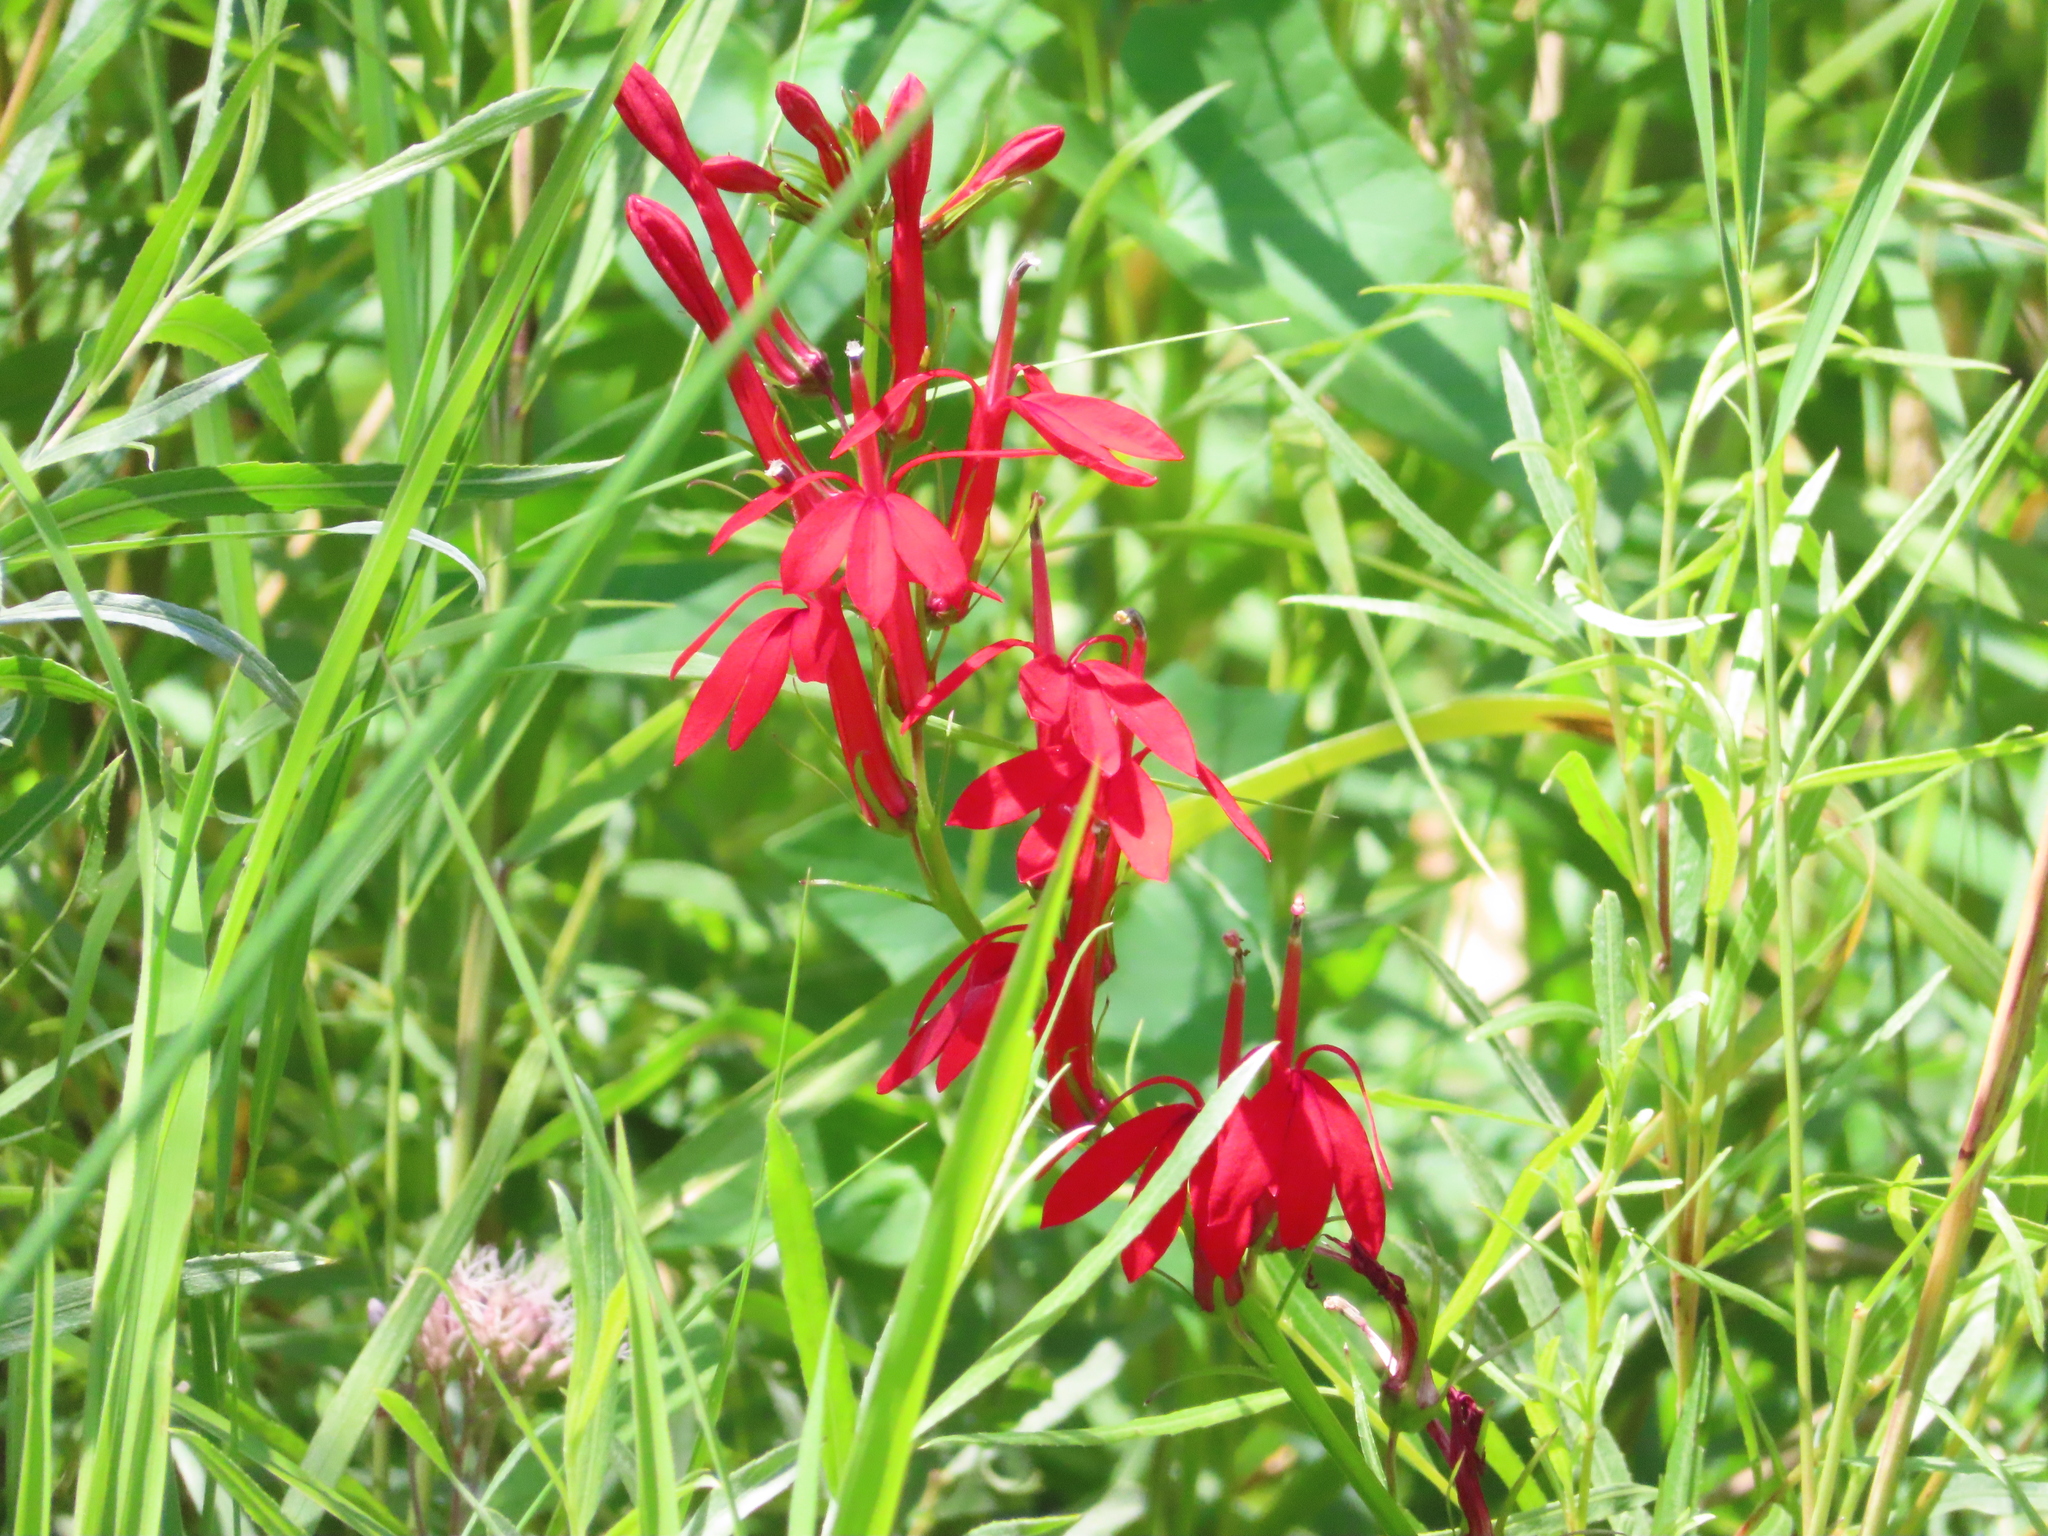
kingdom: Plantae
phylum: Tracheophyta
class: Magnoliopsida
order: Asterales
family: Campanulaceae
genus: Lobelia
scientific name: Lobelia cardinalis
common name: Cardinal flower
